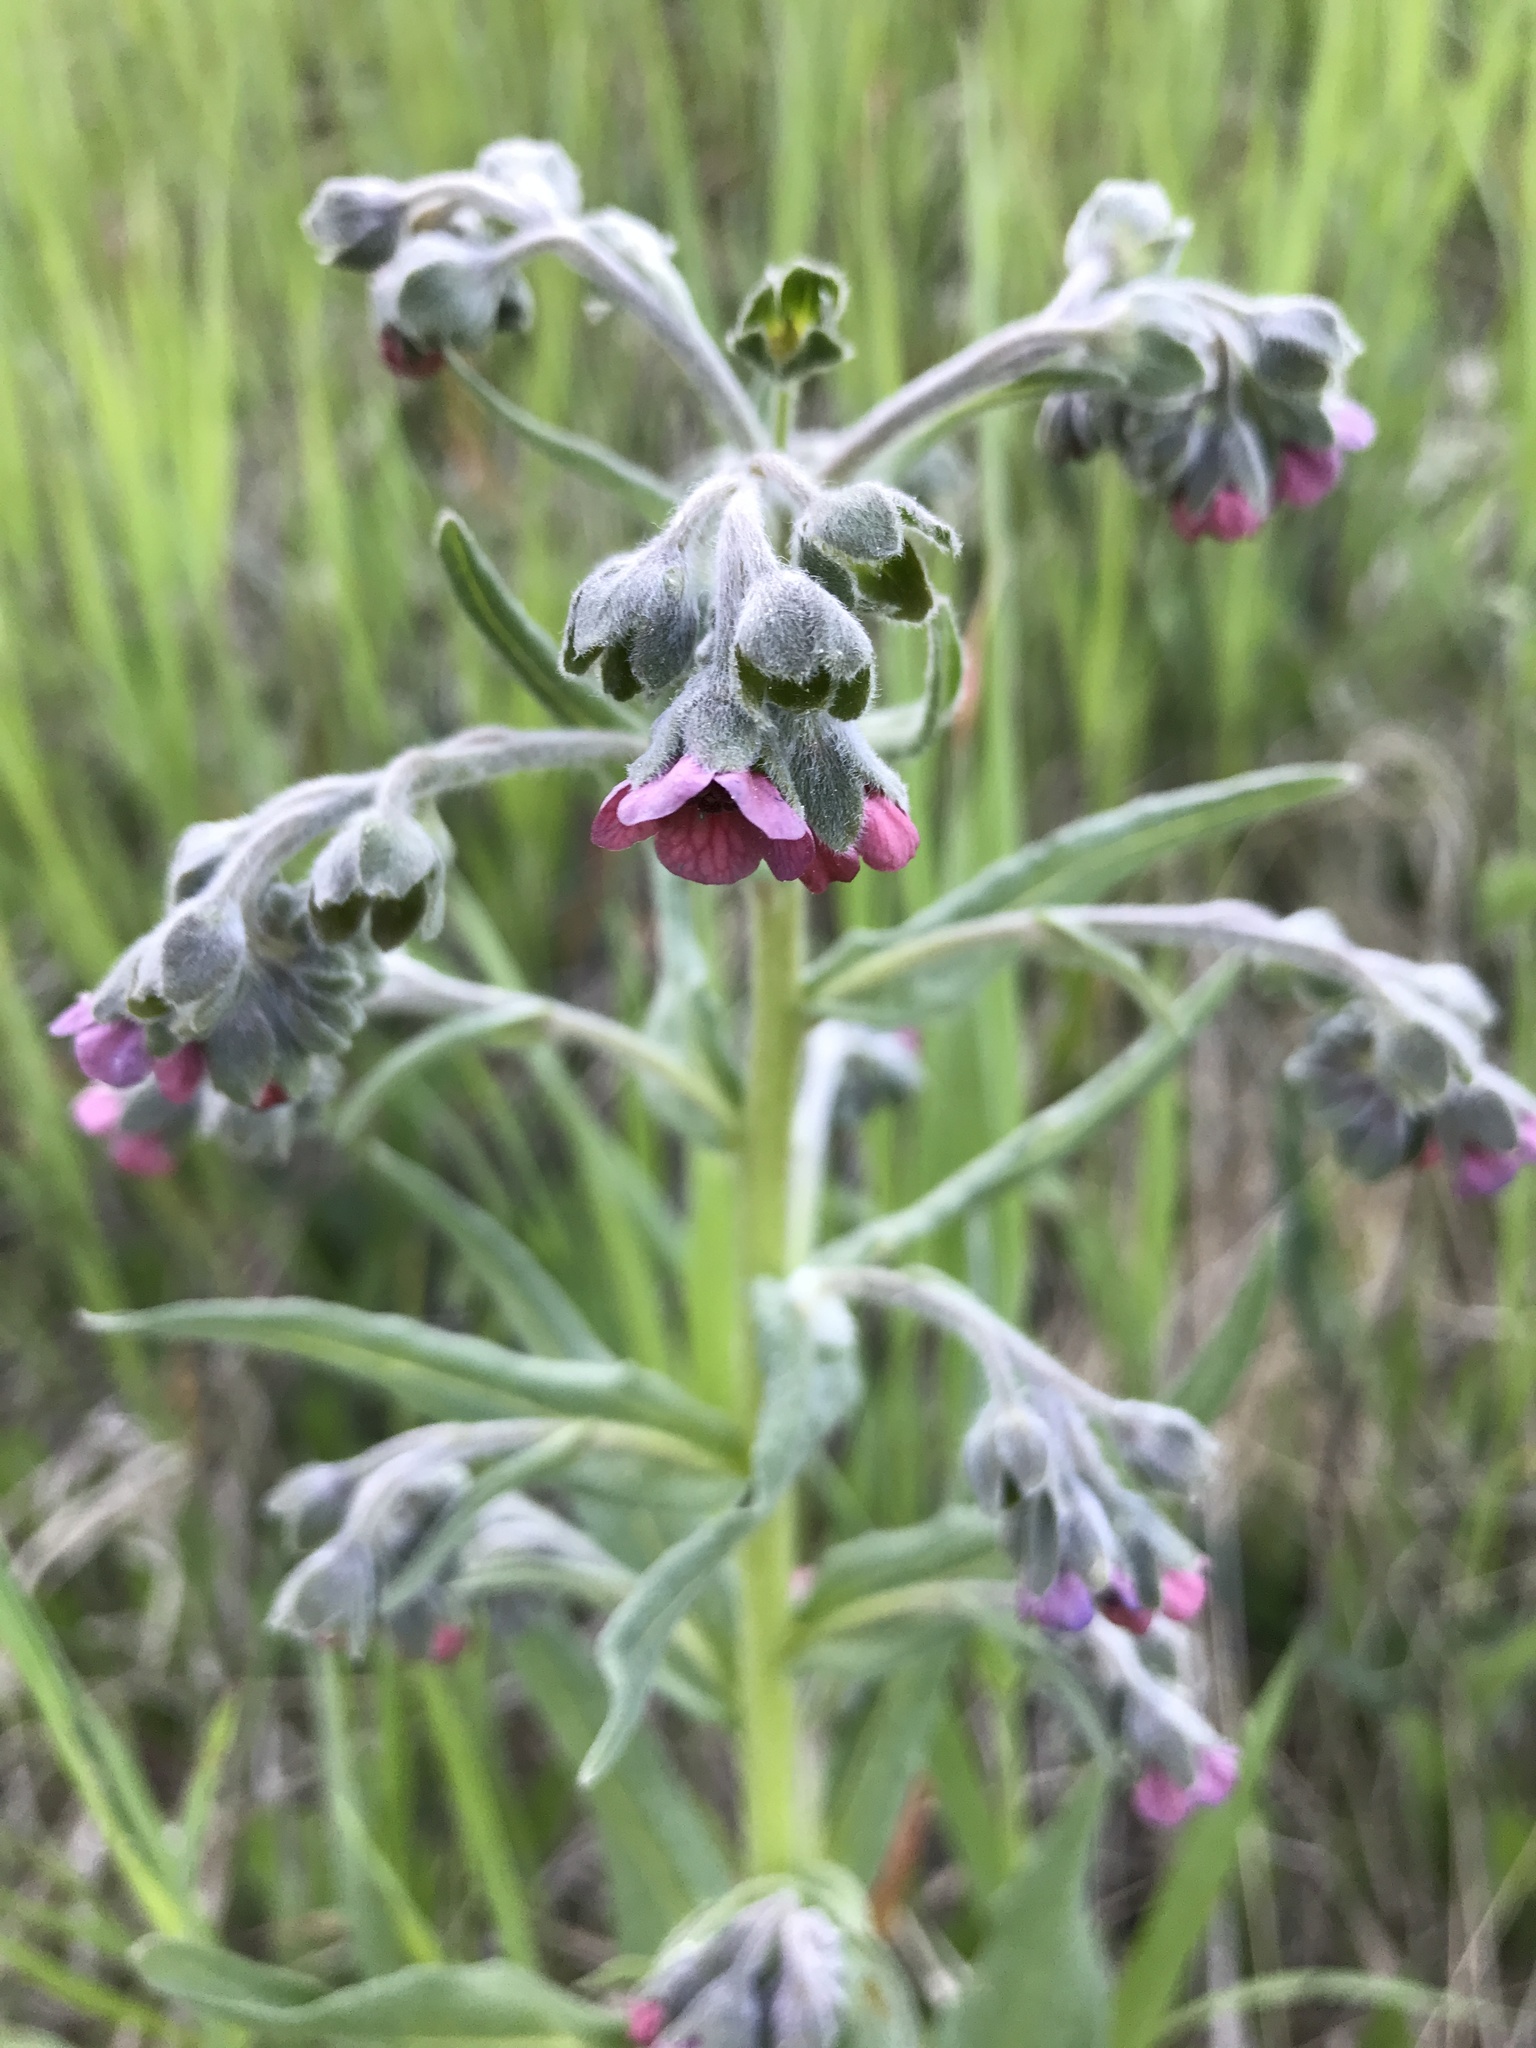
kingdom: Plantae
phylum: Tracheophyta
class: Magnoliopsida
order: Boraginales
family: Boraginaceae
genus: Cynoglossum
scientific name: Cynoglossum officinale
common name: Hound's-tongue
